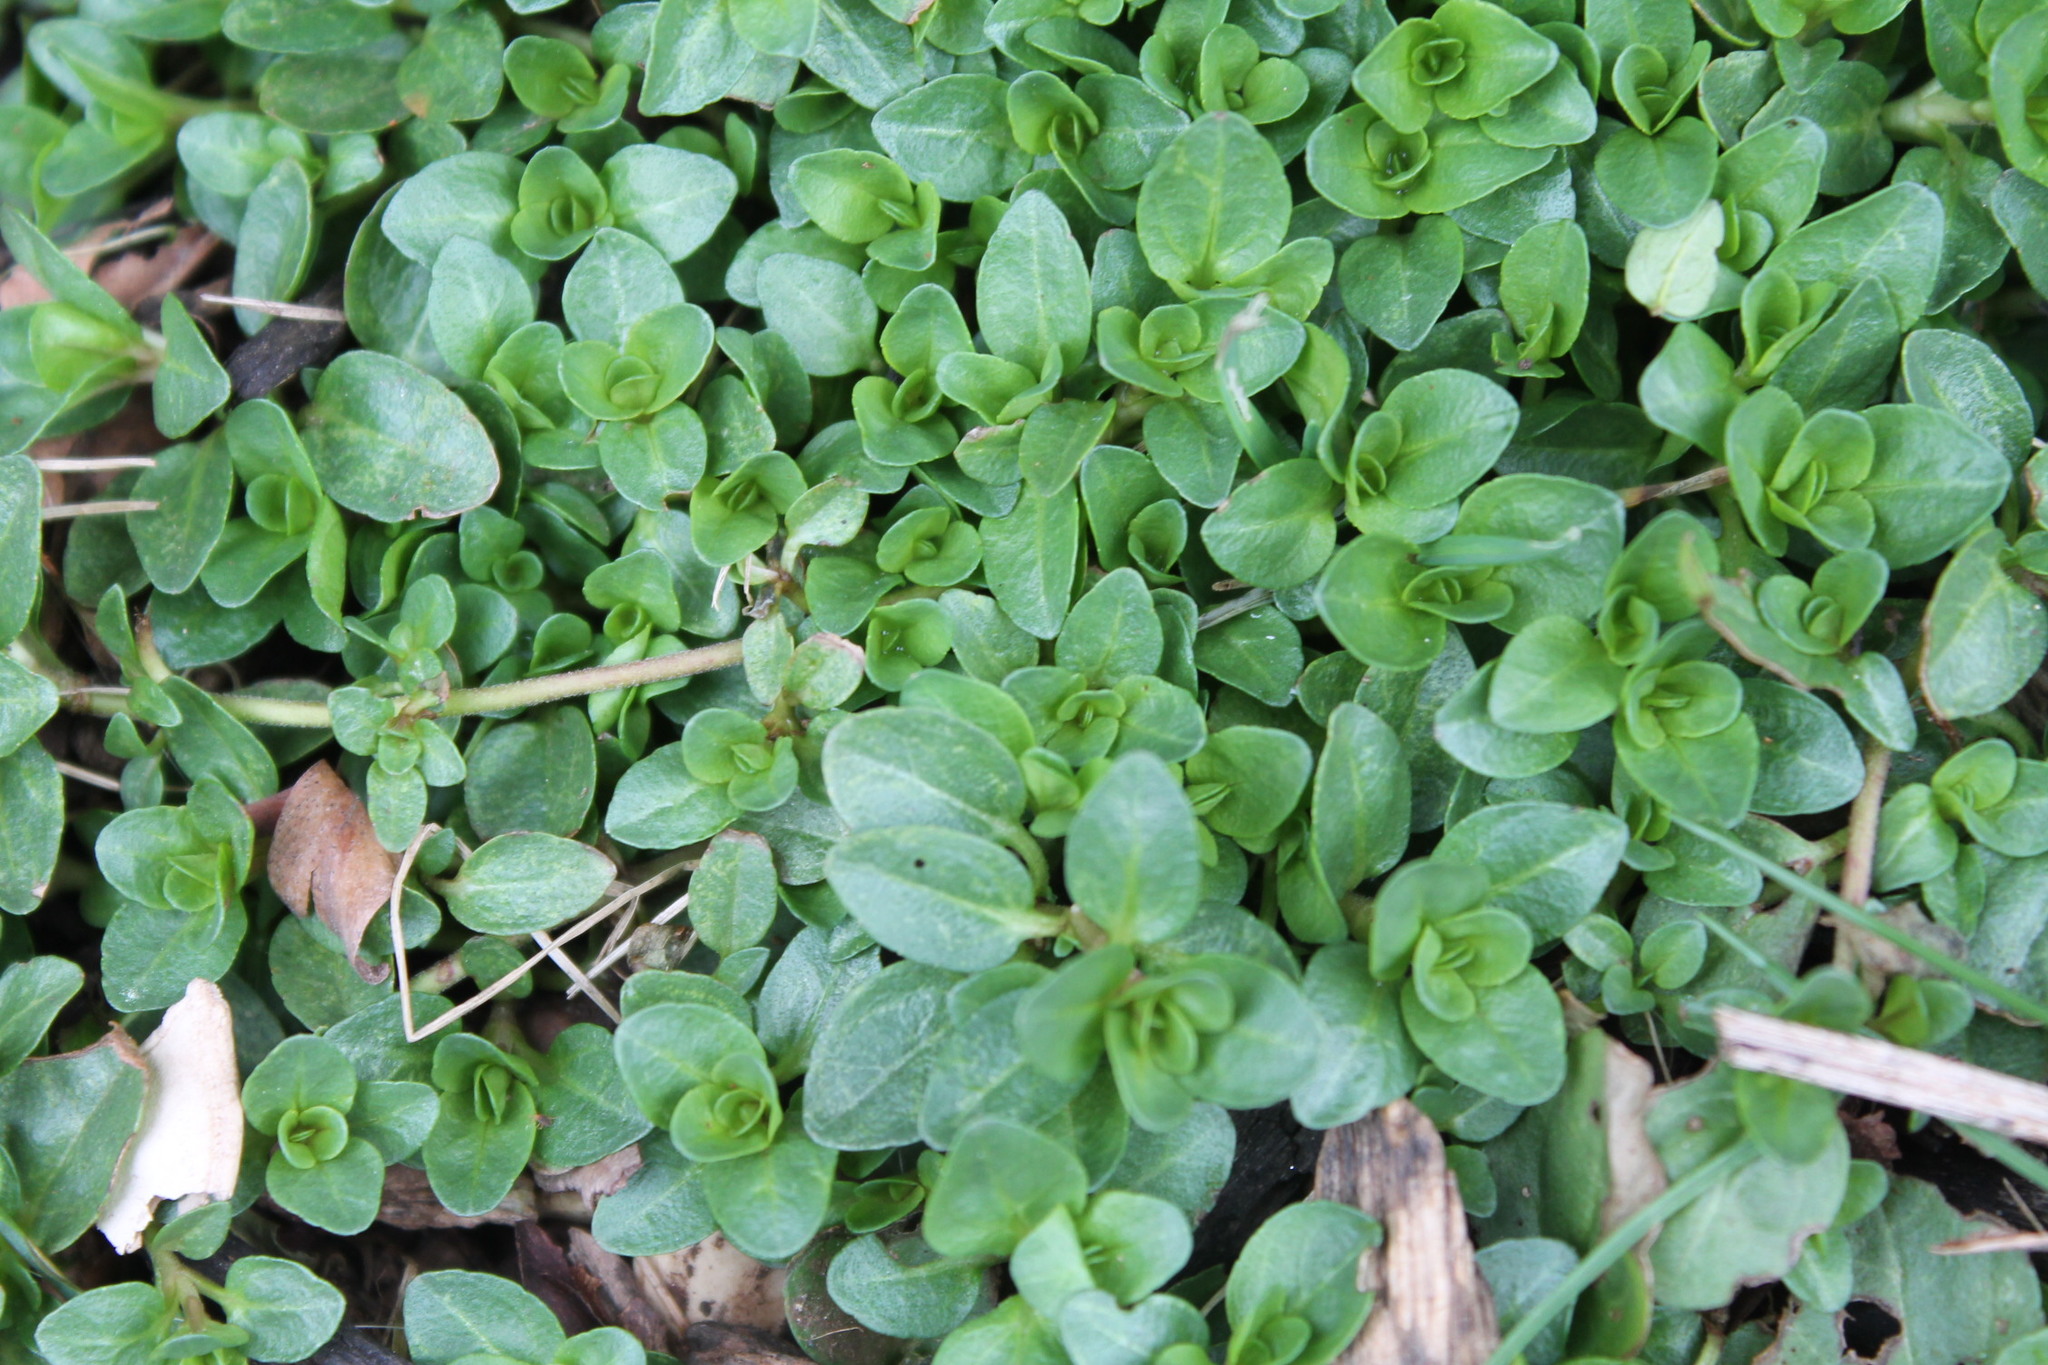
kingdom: Plantae
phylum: Tracheophyta
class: Magnoliopsida
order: Caryophyllales
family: Caryophyllaceae
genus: Stellaria
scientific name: Stellaria media
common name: Common chickweed
